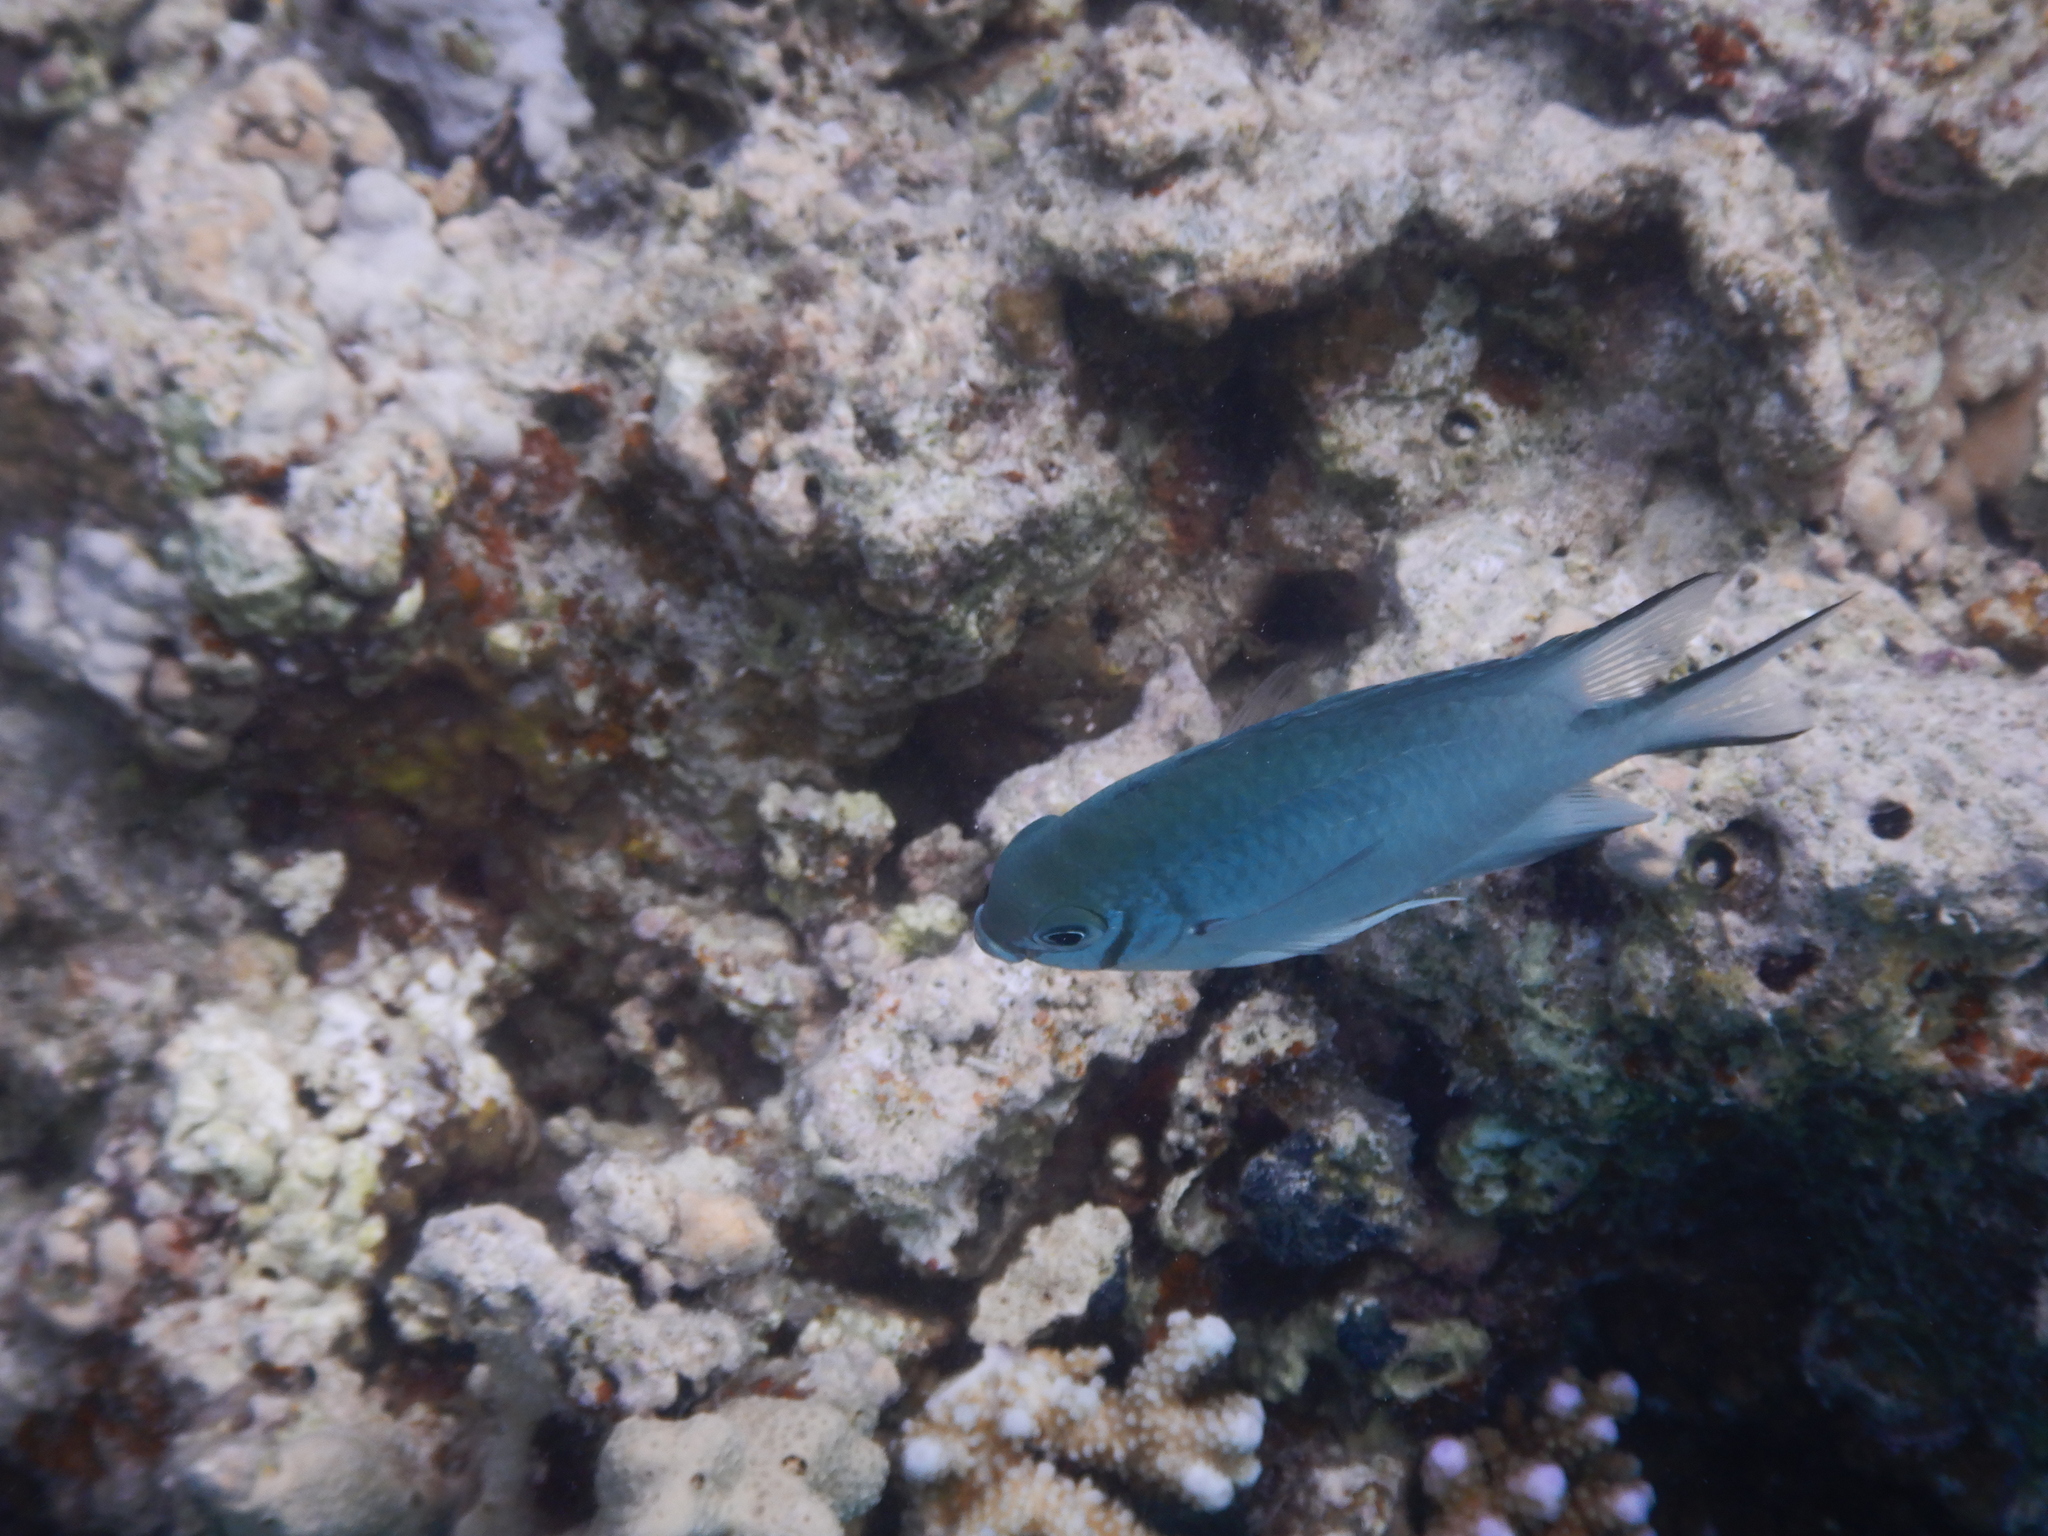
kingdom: Animalia
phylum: Chordata
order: Perciformes
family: Pomacentridae
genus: Amblyglyphidodon
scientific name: Amblyglyphidodon indicus
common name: Maldives damselfish
